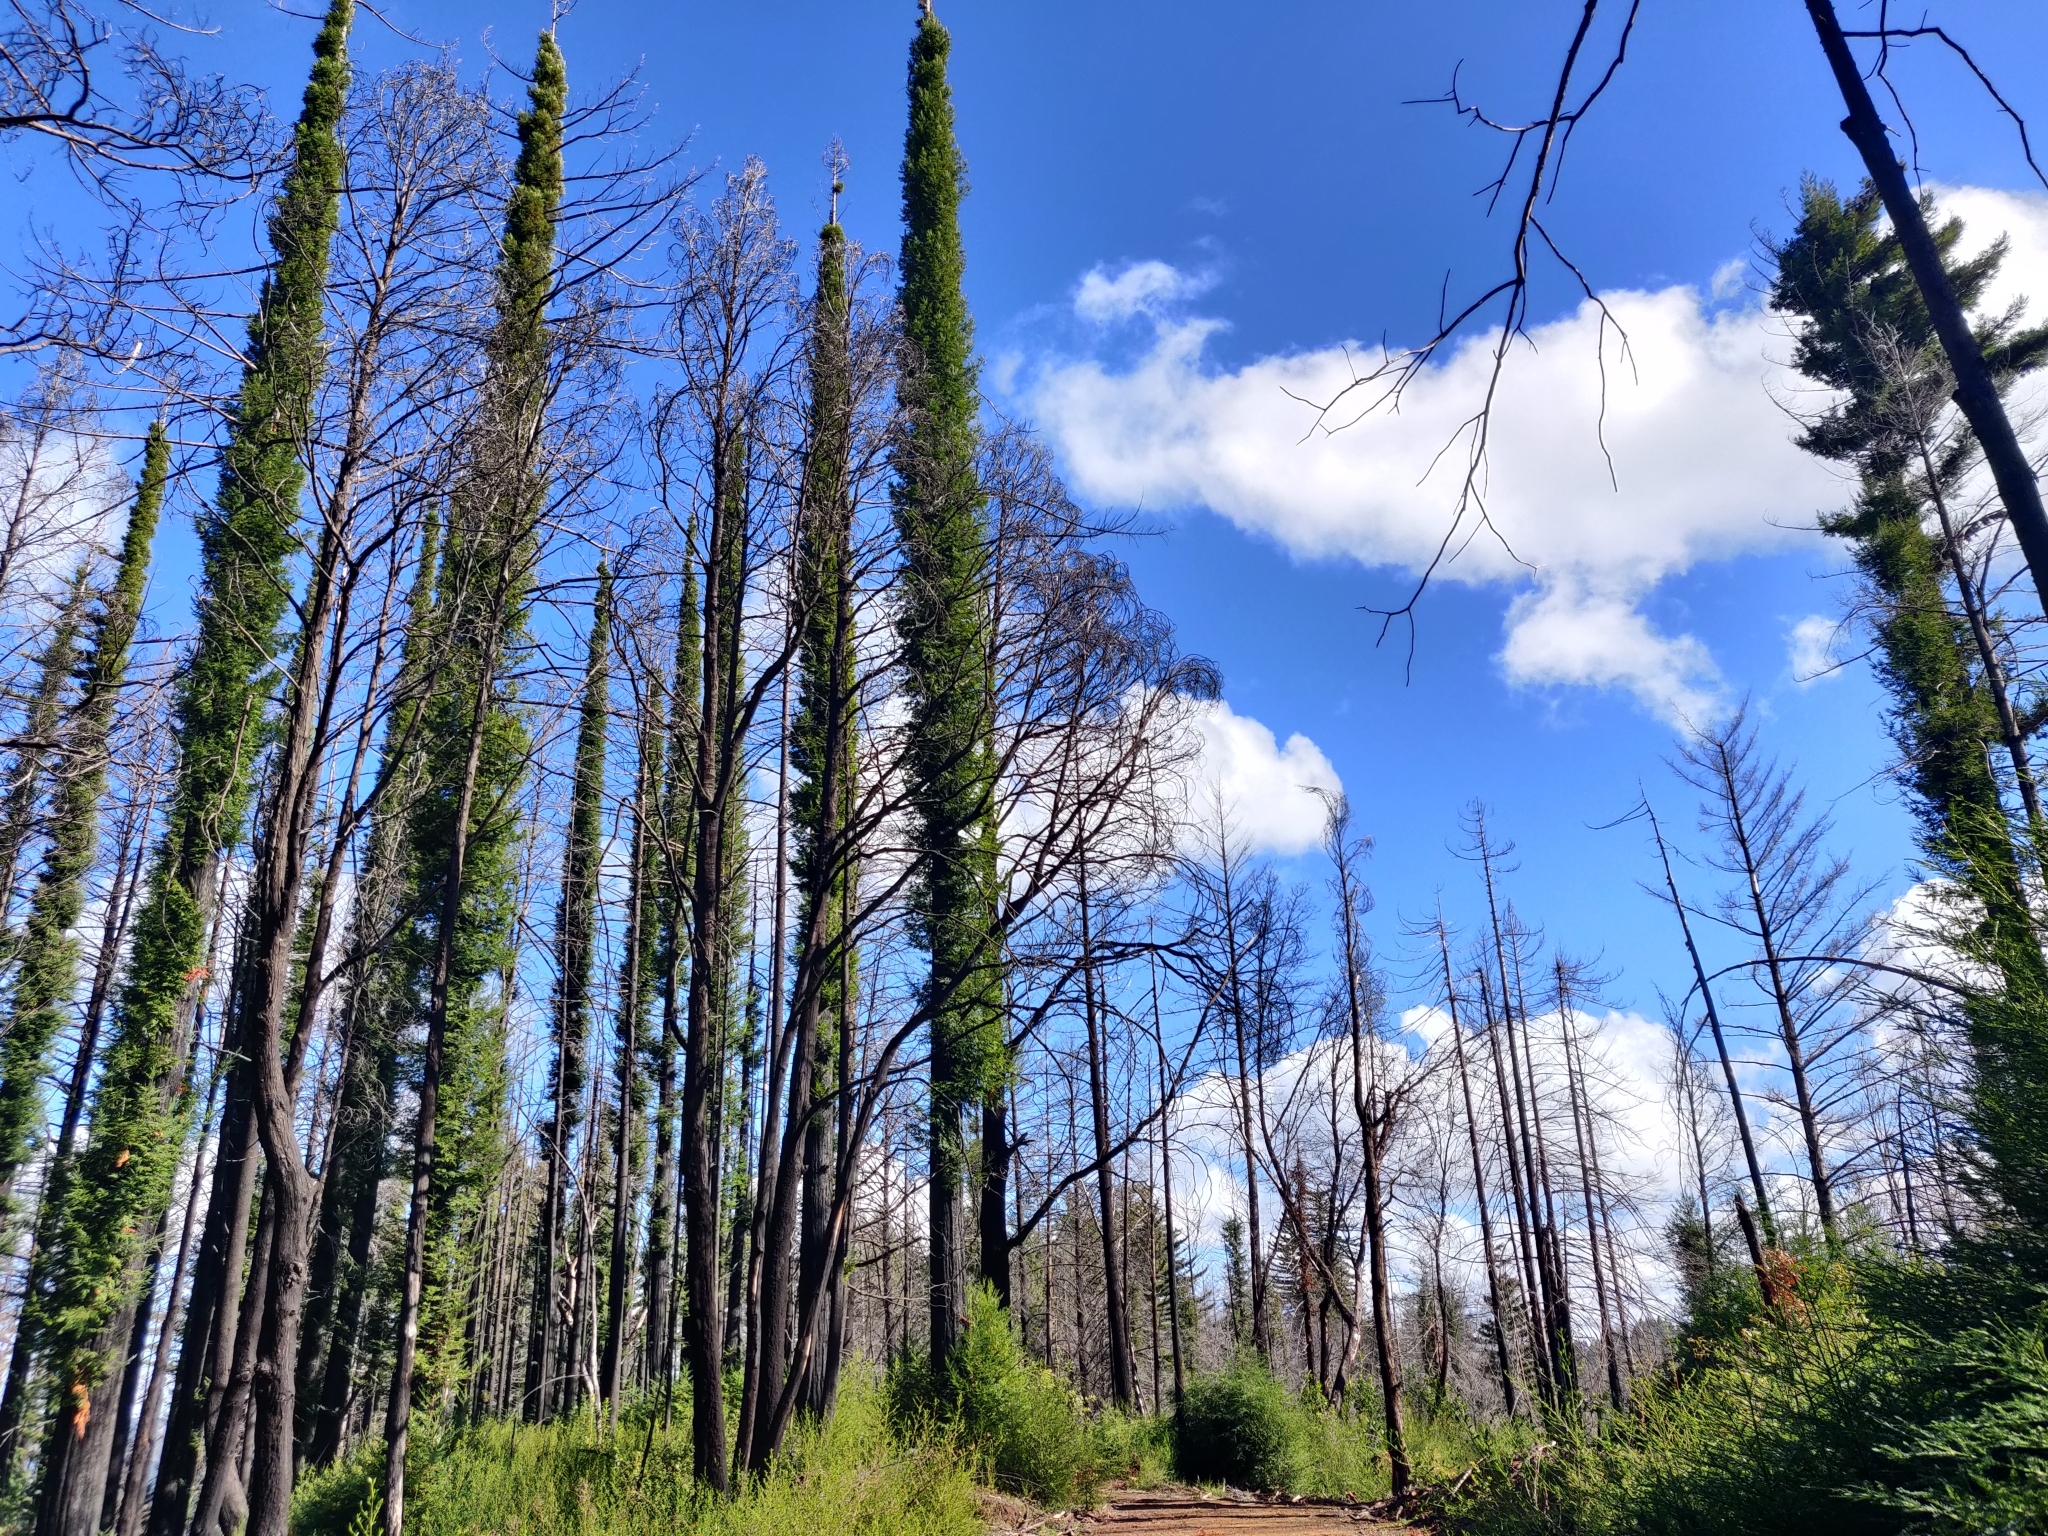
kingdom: Plantae
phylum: Tracheophyta
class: Pinopsida
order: Pinales
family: Cupressaceae
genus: Sequoia
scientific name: Sequoia sempervirens
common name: Coast redwood
